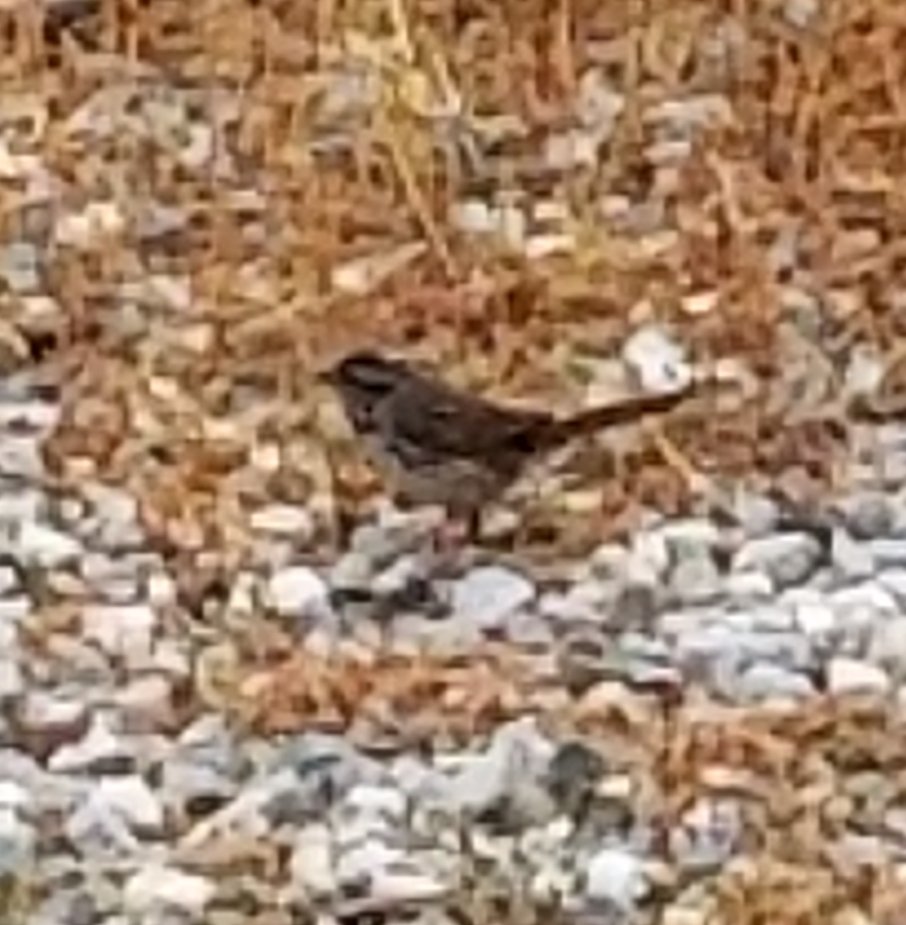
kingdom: Animalia
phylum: Chordata
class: Aves
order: Passeriformes
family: Passerellidae
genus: Melospiza
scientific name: Melospiza melodia
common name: Song sparrow
